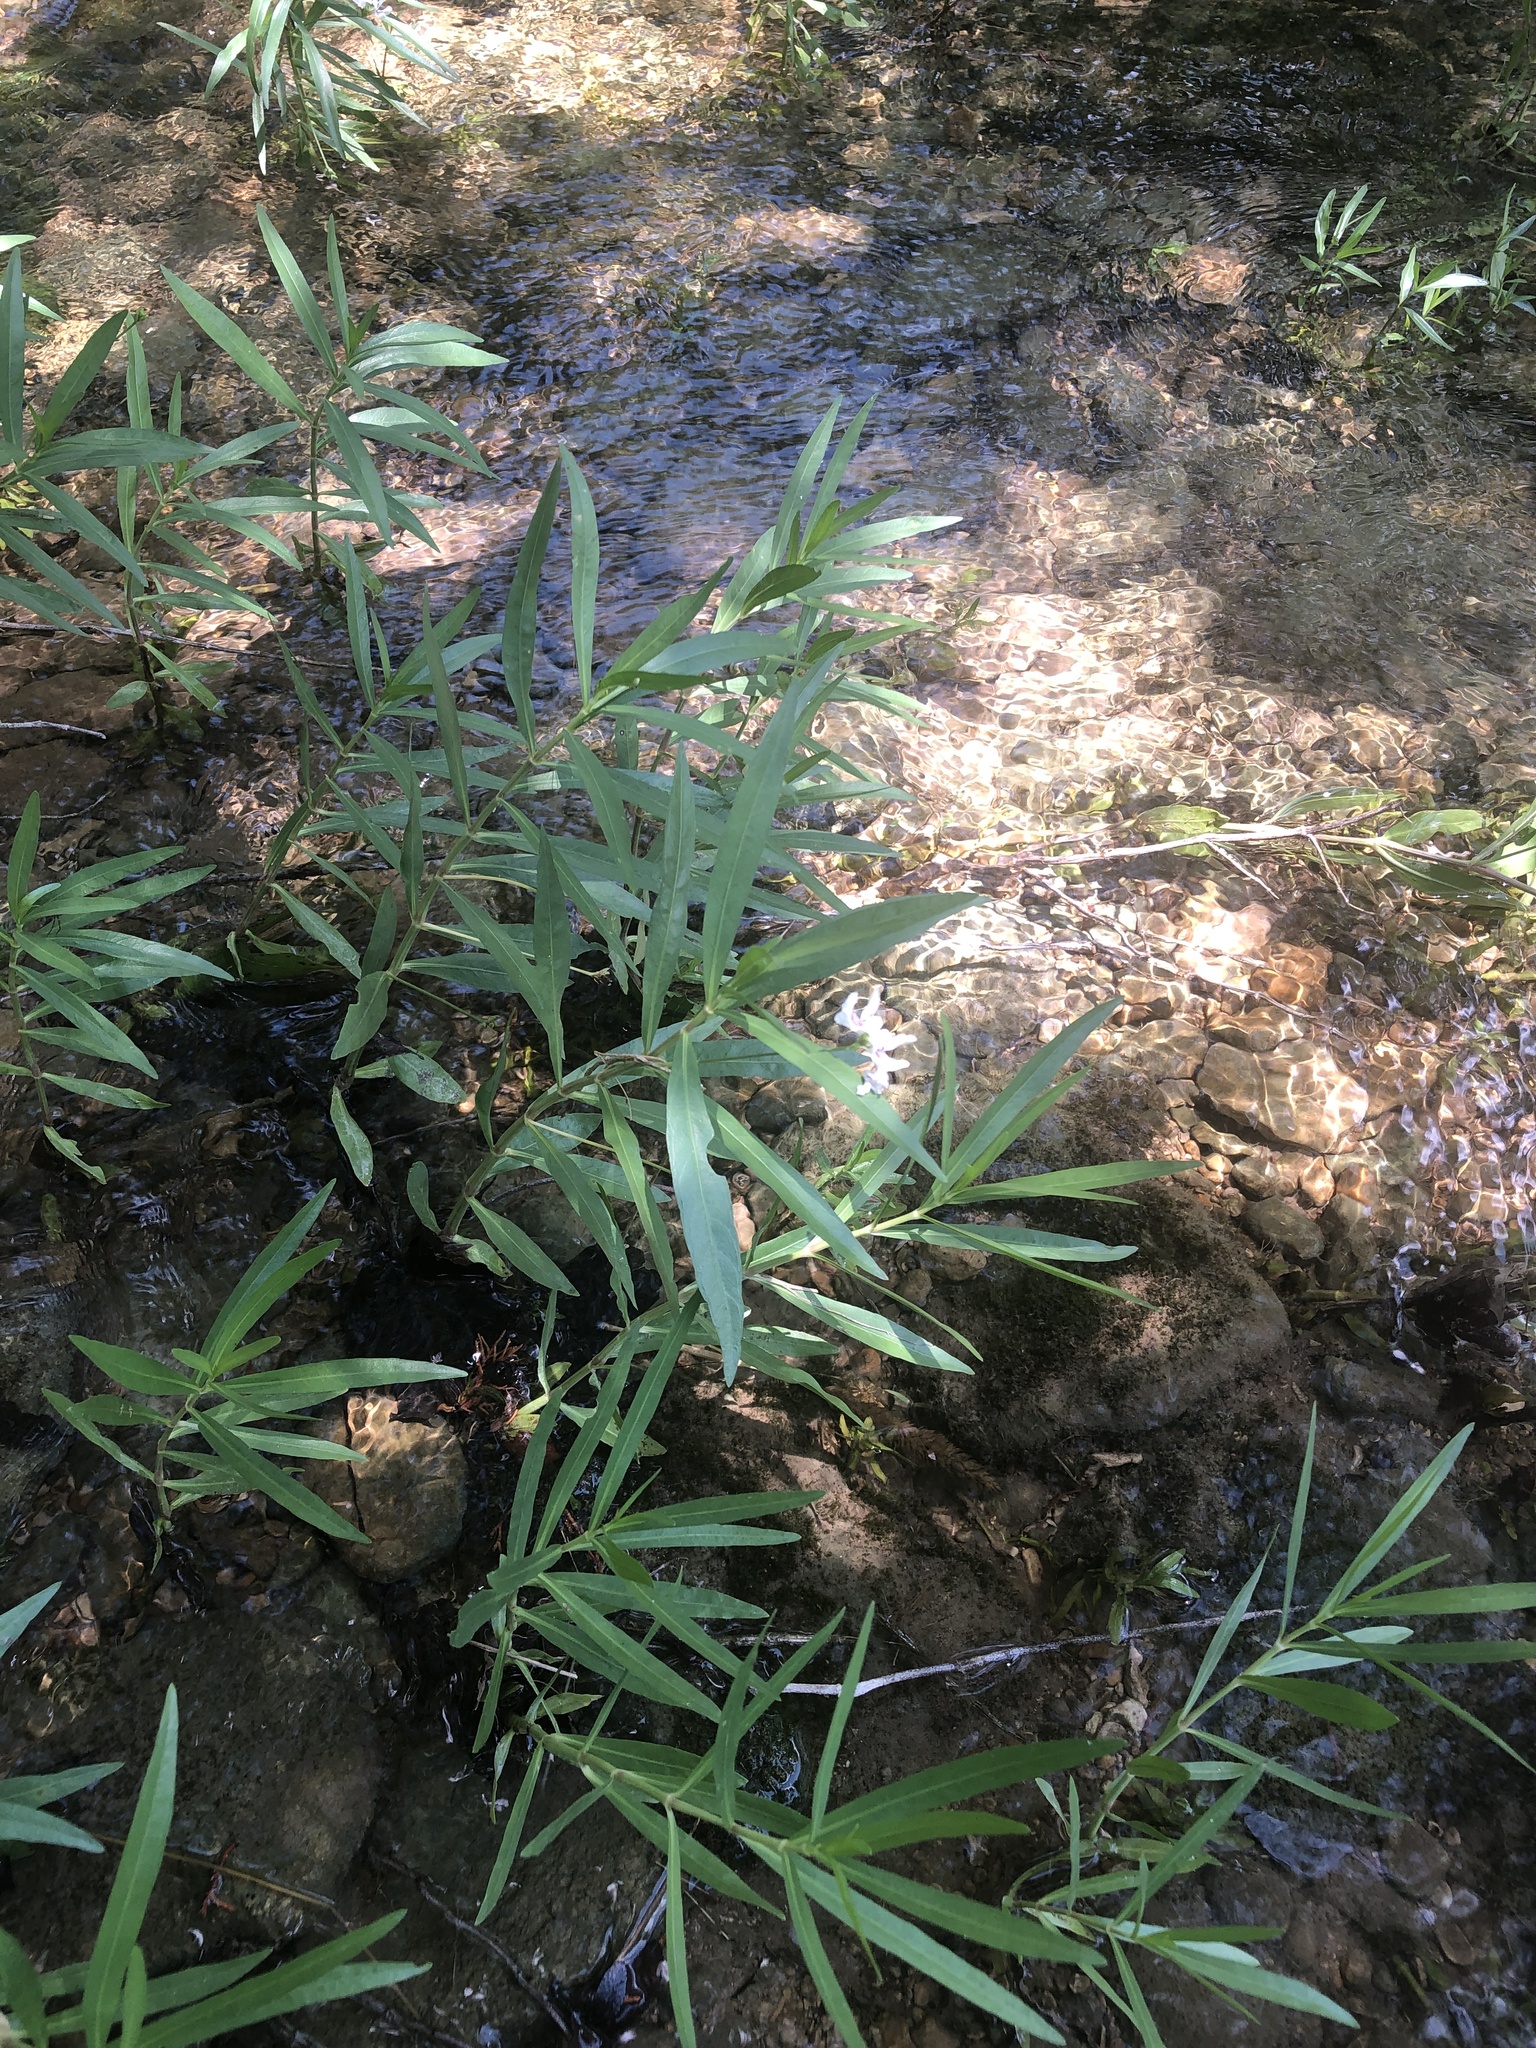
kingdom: Plantae
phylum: Tracheophyta
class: Magnoliopsida
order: Lamiales
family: Acanthaceae
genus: Dianthera
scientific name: Dianthera americana
